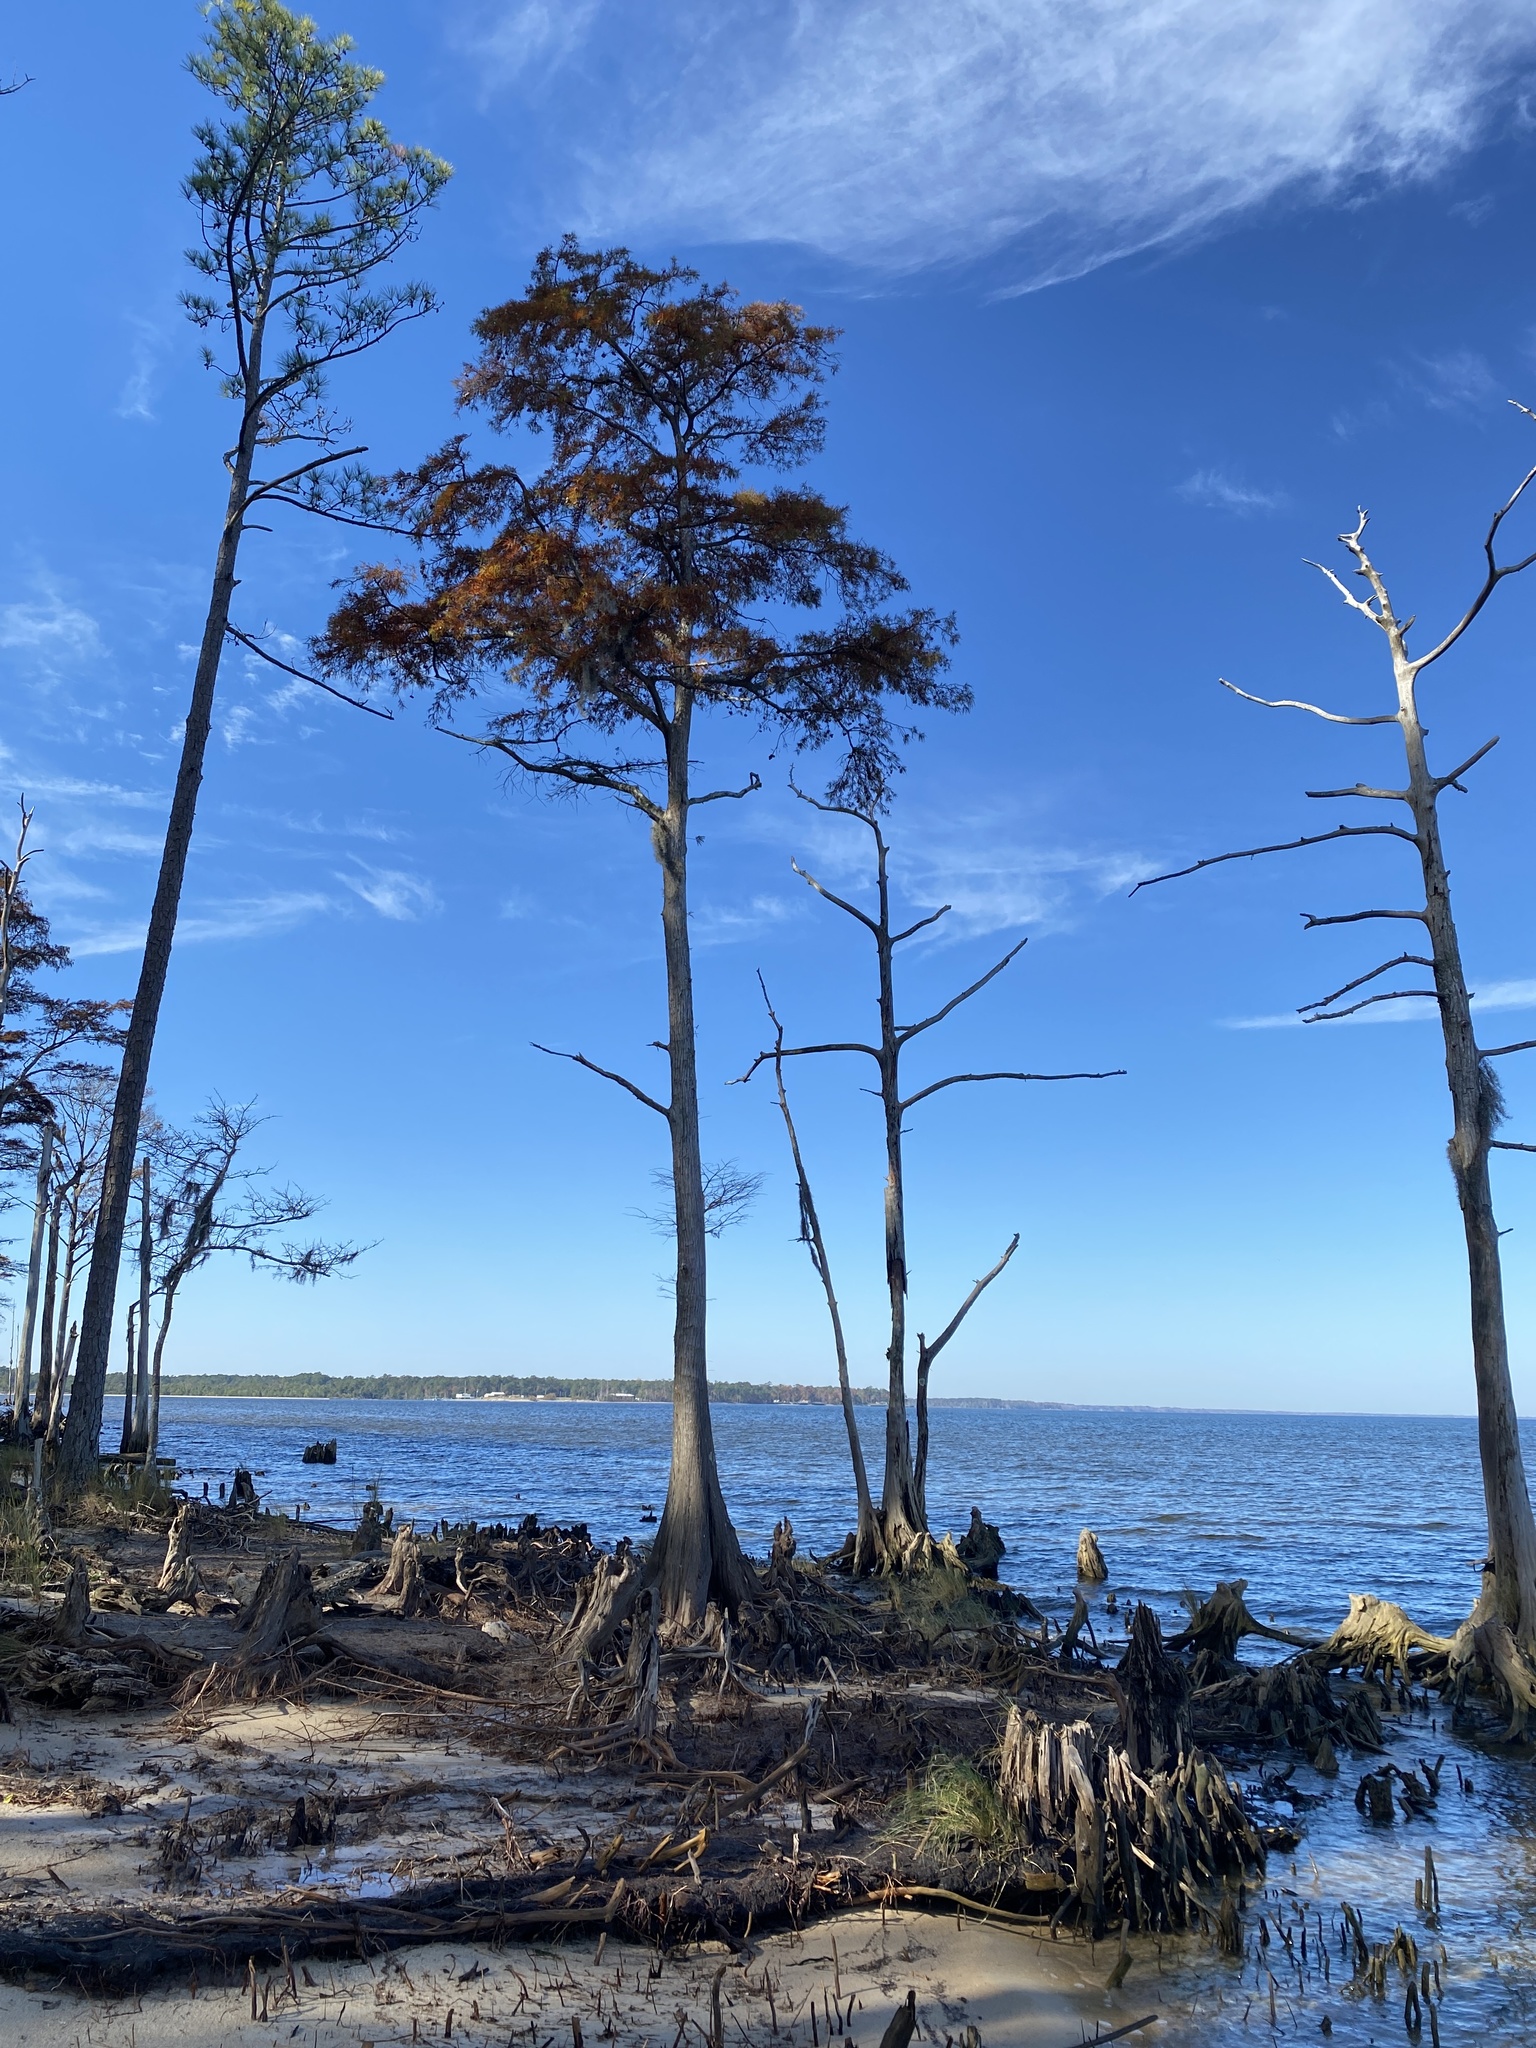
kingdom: Plantae
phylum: Tracheophyta
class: Pinopsida
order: Pinales
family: Cupressaceae
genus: Taxodium
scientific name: Taxodium distichum
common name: Bald cypress
